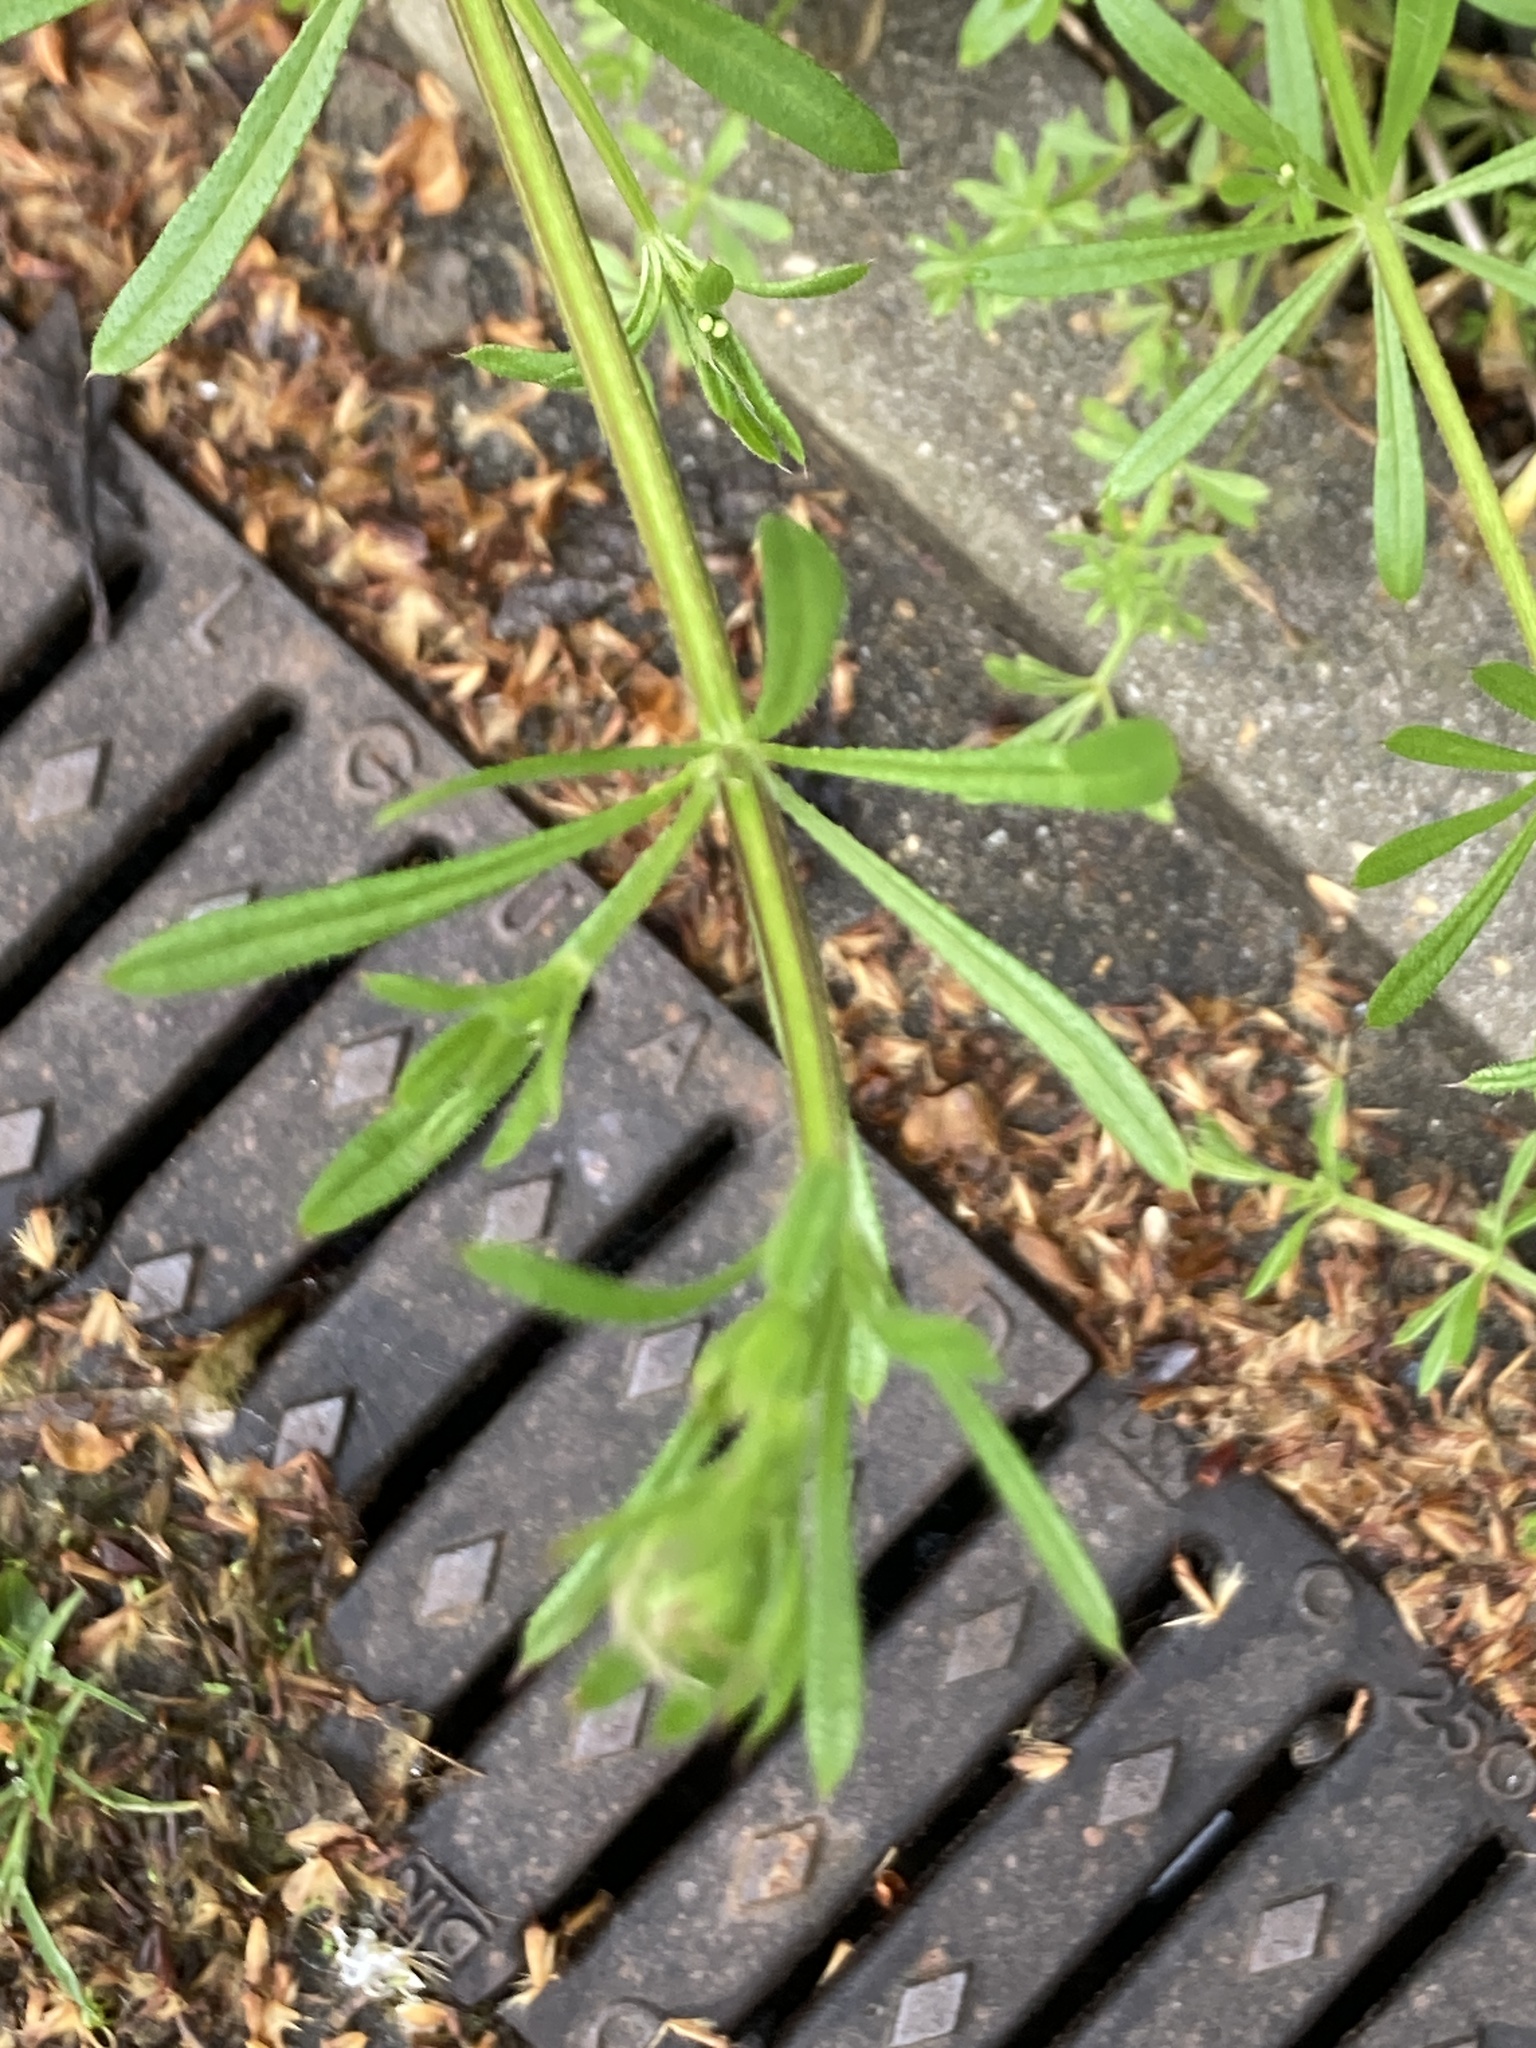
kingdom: Plantae
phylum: Tracheophyta
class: Magnoliopsida
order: Gentianales
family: Rubiaceae
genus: Galium
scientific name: Galium aparine
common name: Cleavers
